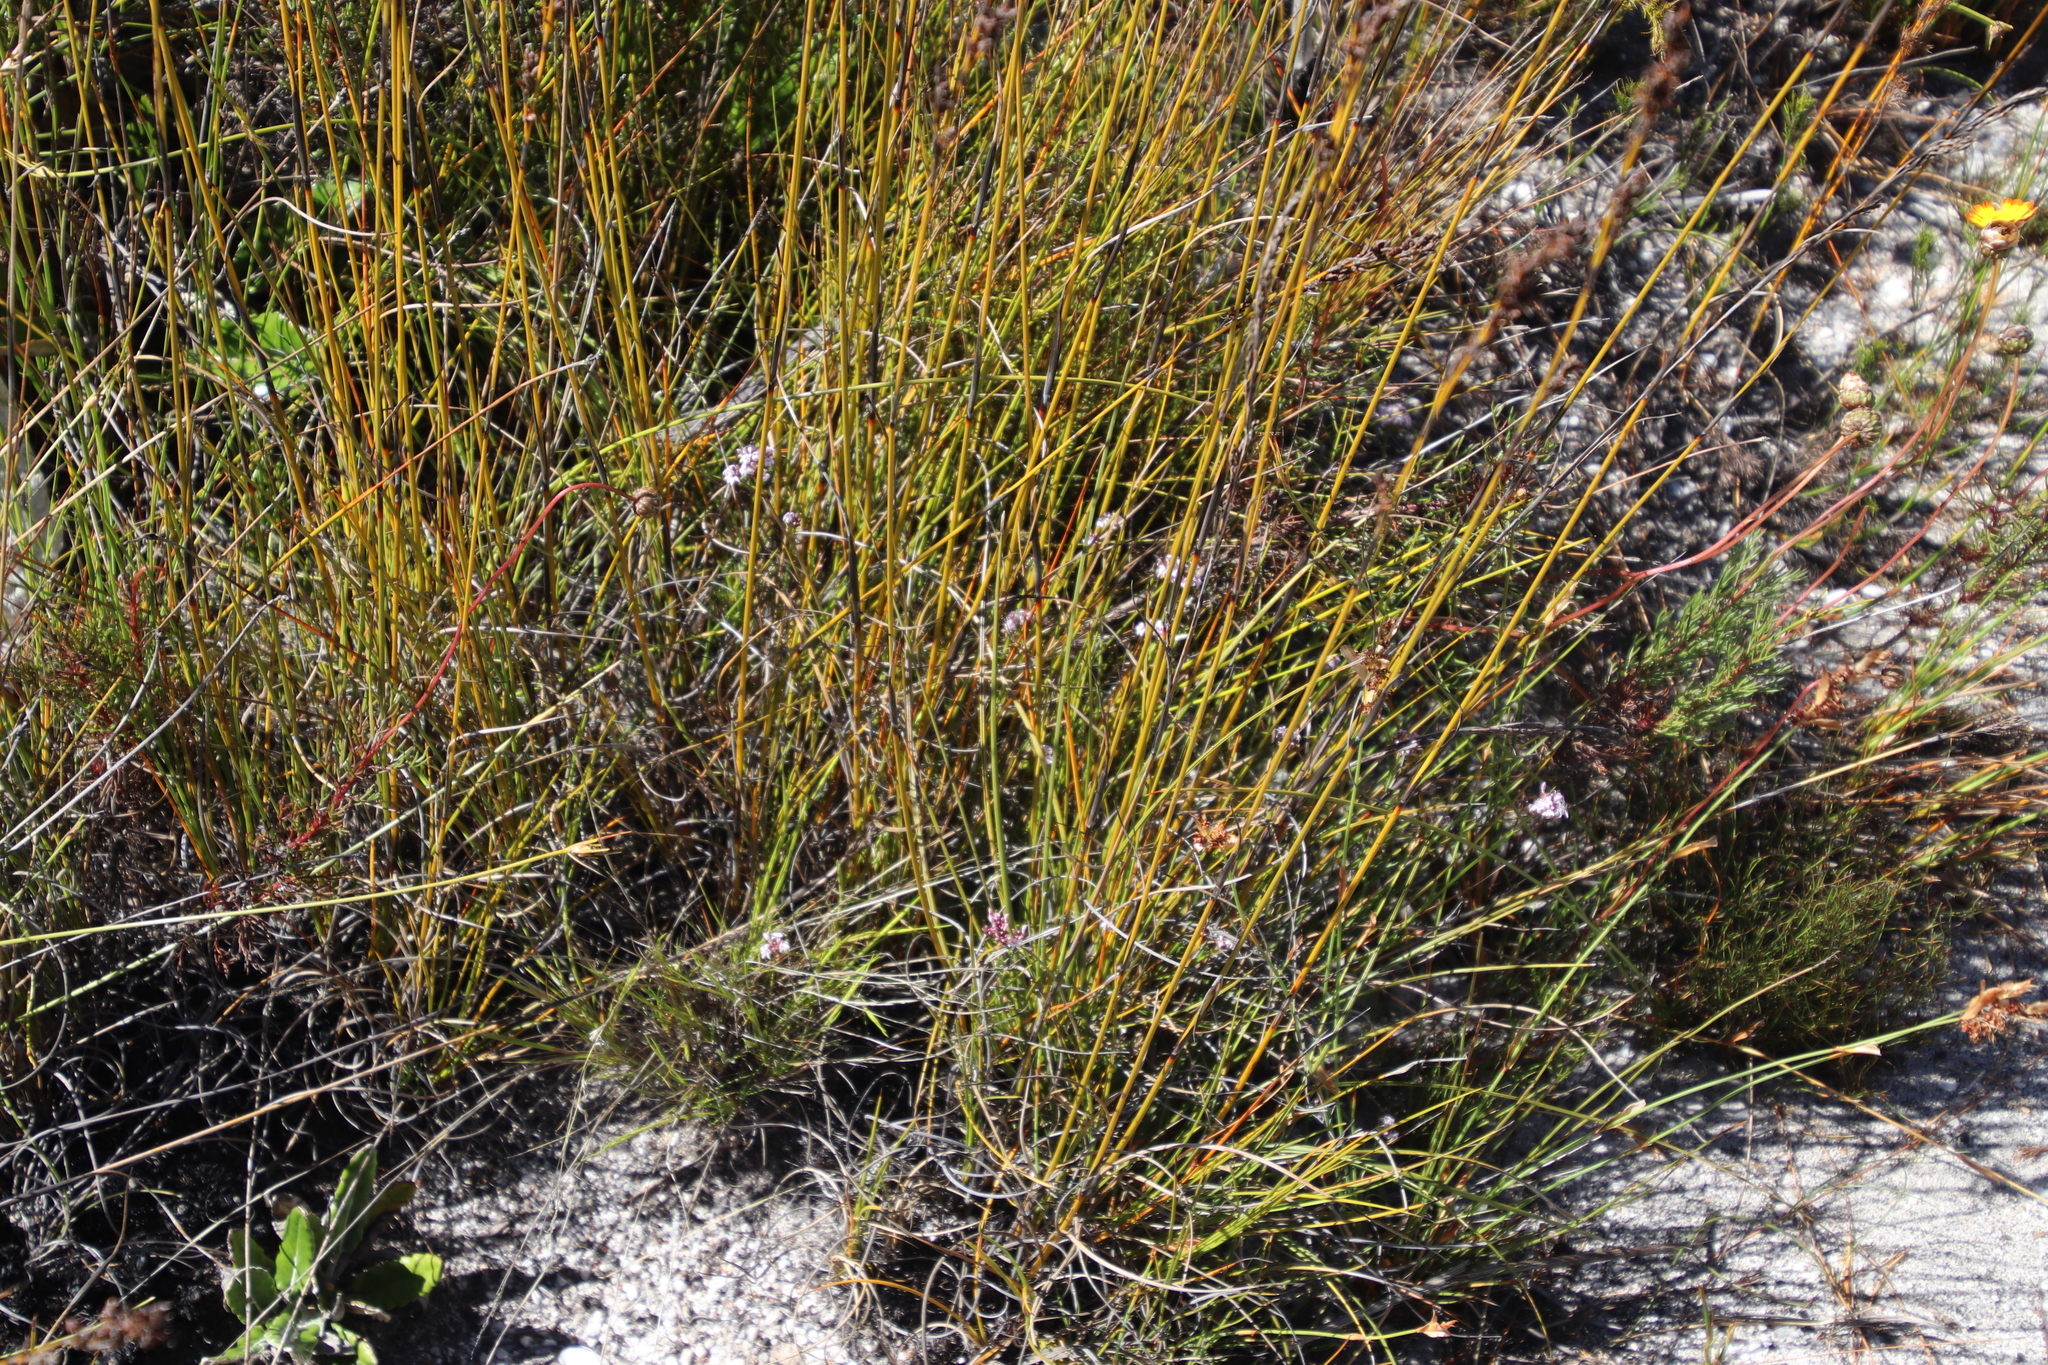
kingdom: Plantae
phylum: Tracheophyta
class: Magnoliopsida
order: Asterales
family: Campanulaceae
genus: Lobelia
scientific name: Lobelia jasionoides
